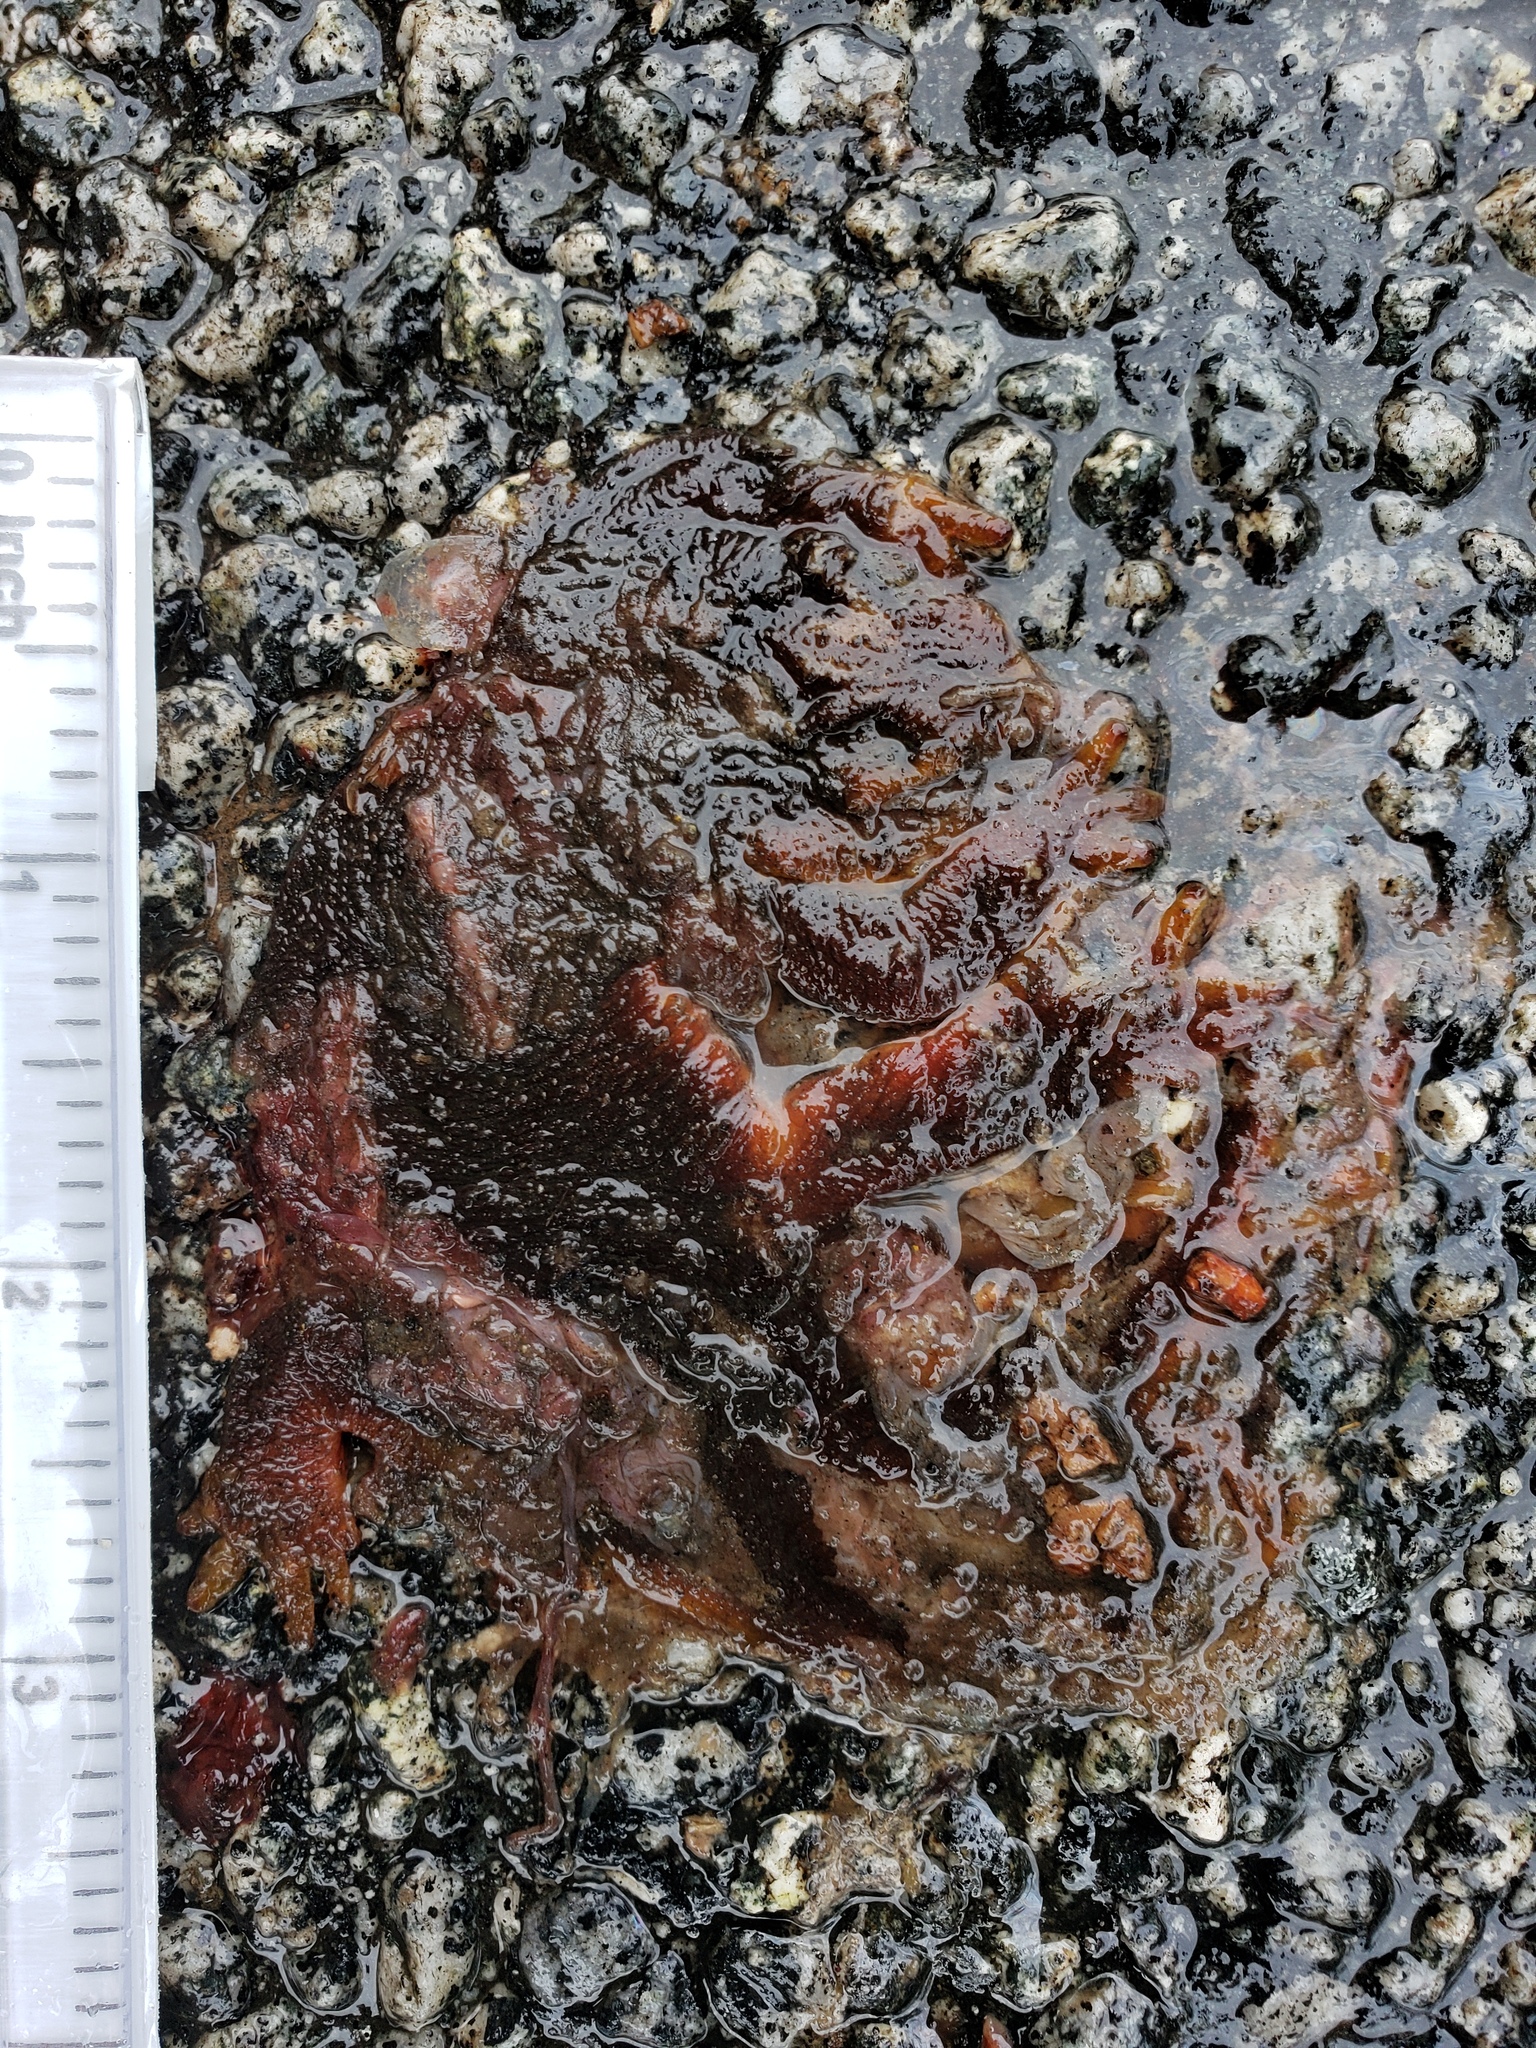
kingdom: Animalia
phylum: Chordata
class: Amphibia
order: Caudata
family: Salamandridae
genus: Taricha
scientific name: Taricha
